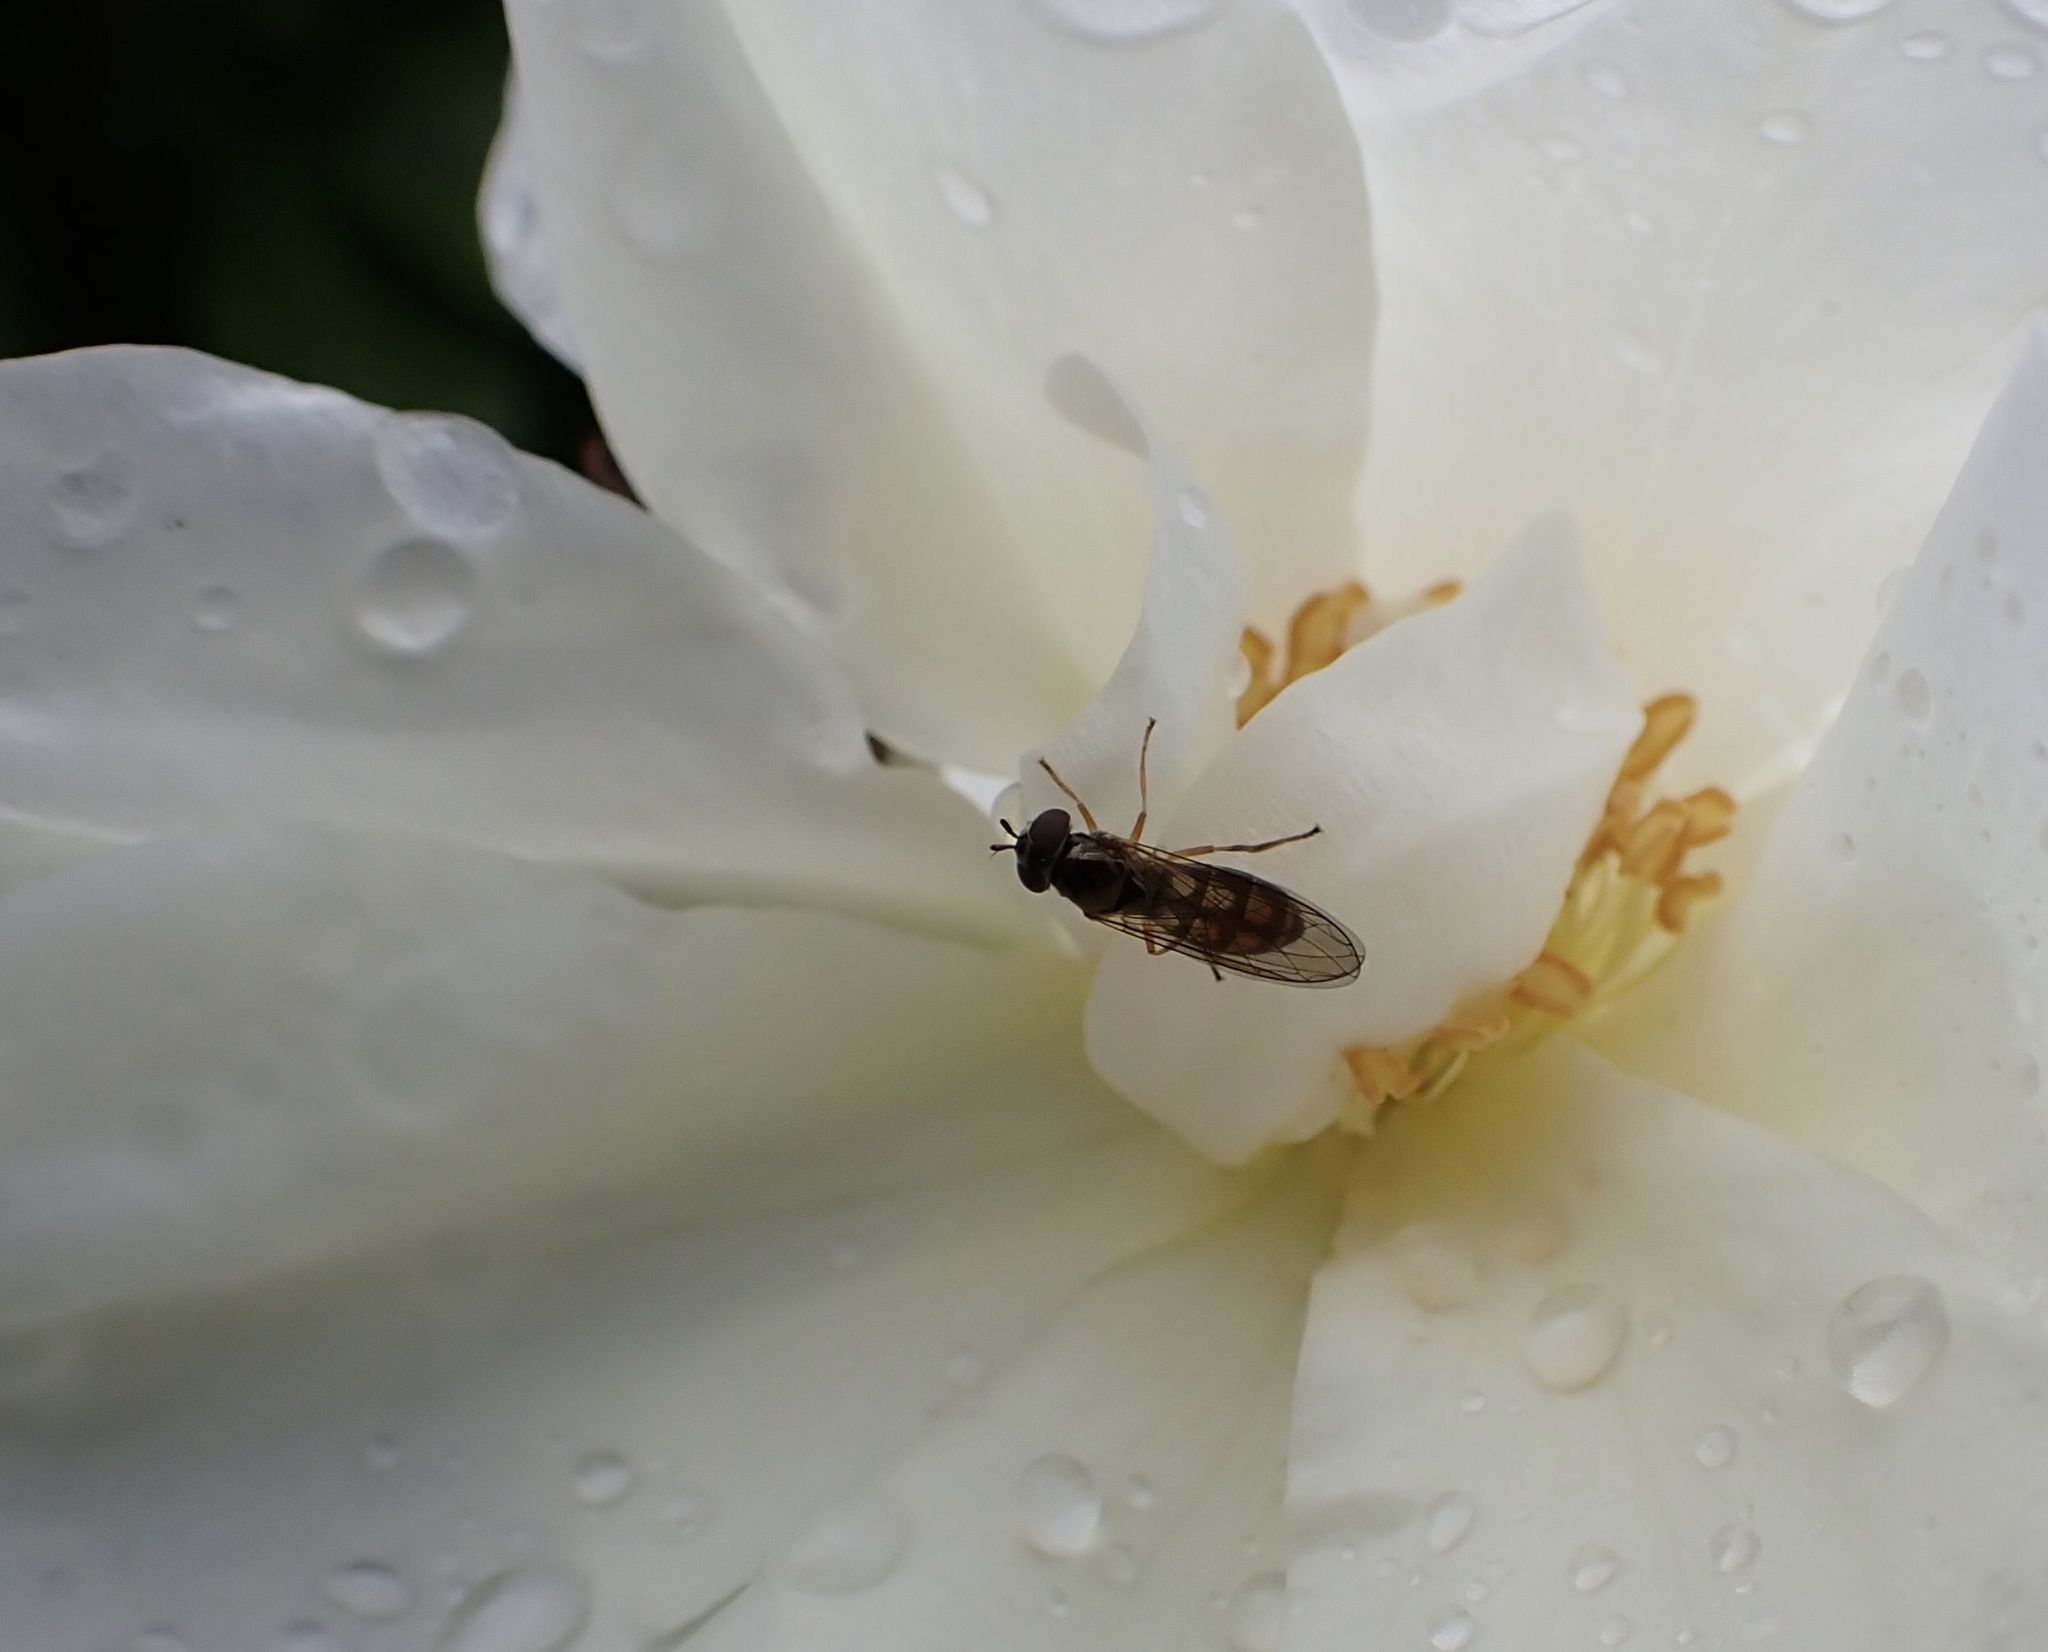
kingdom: Animalia
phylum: Arthropoda
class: Insecta
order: Diptera
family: Syrphidae
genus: Melanostoma
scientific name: Melanostoma fasciatum
